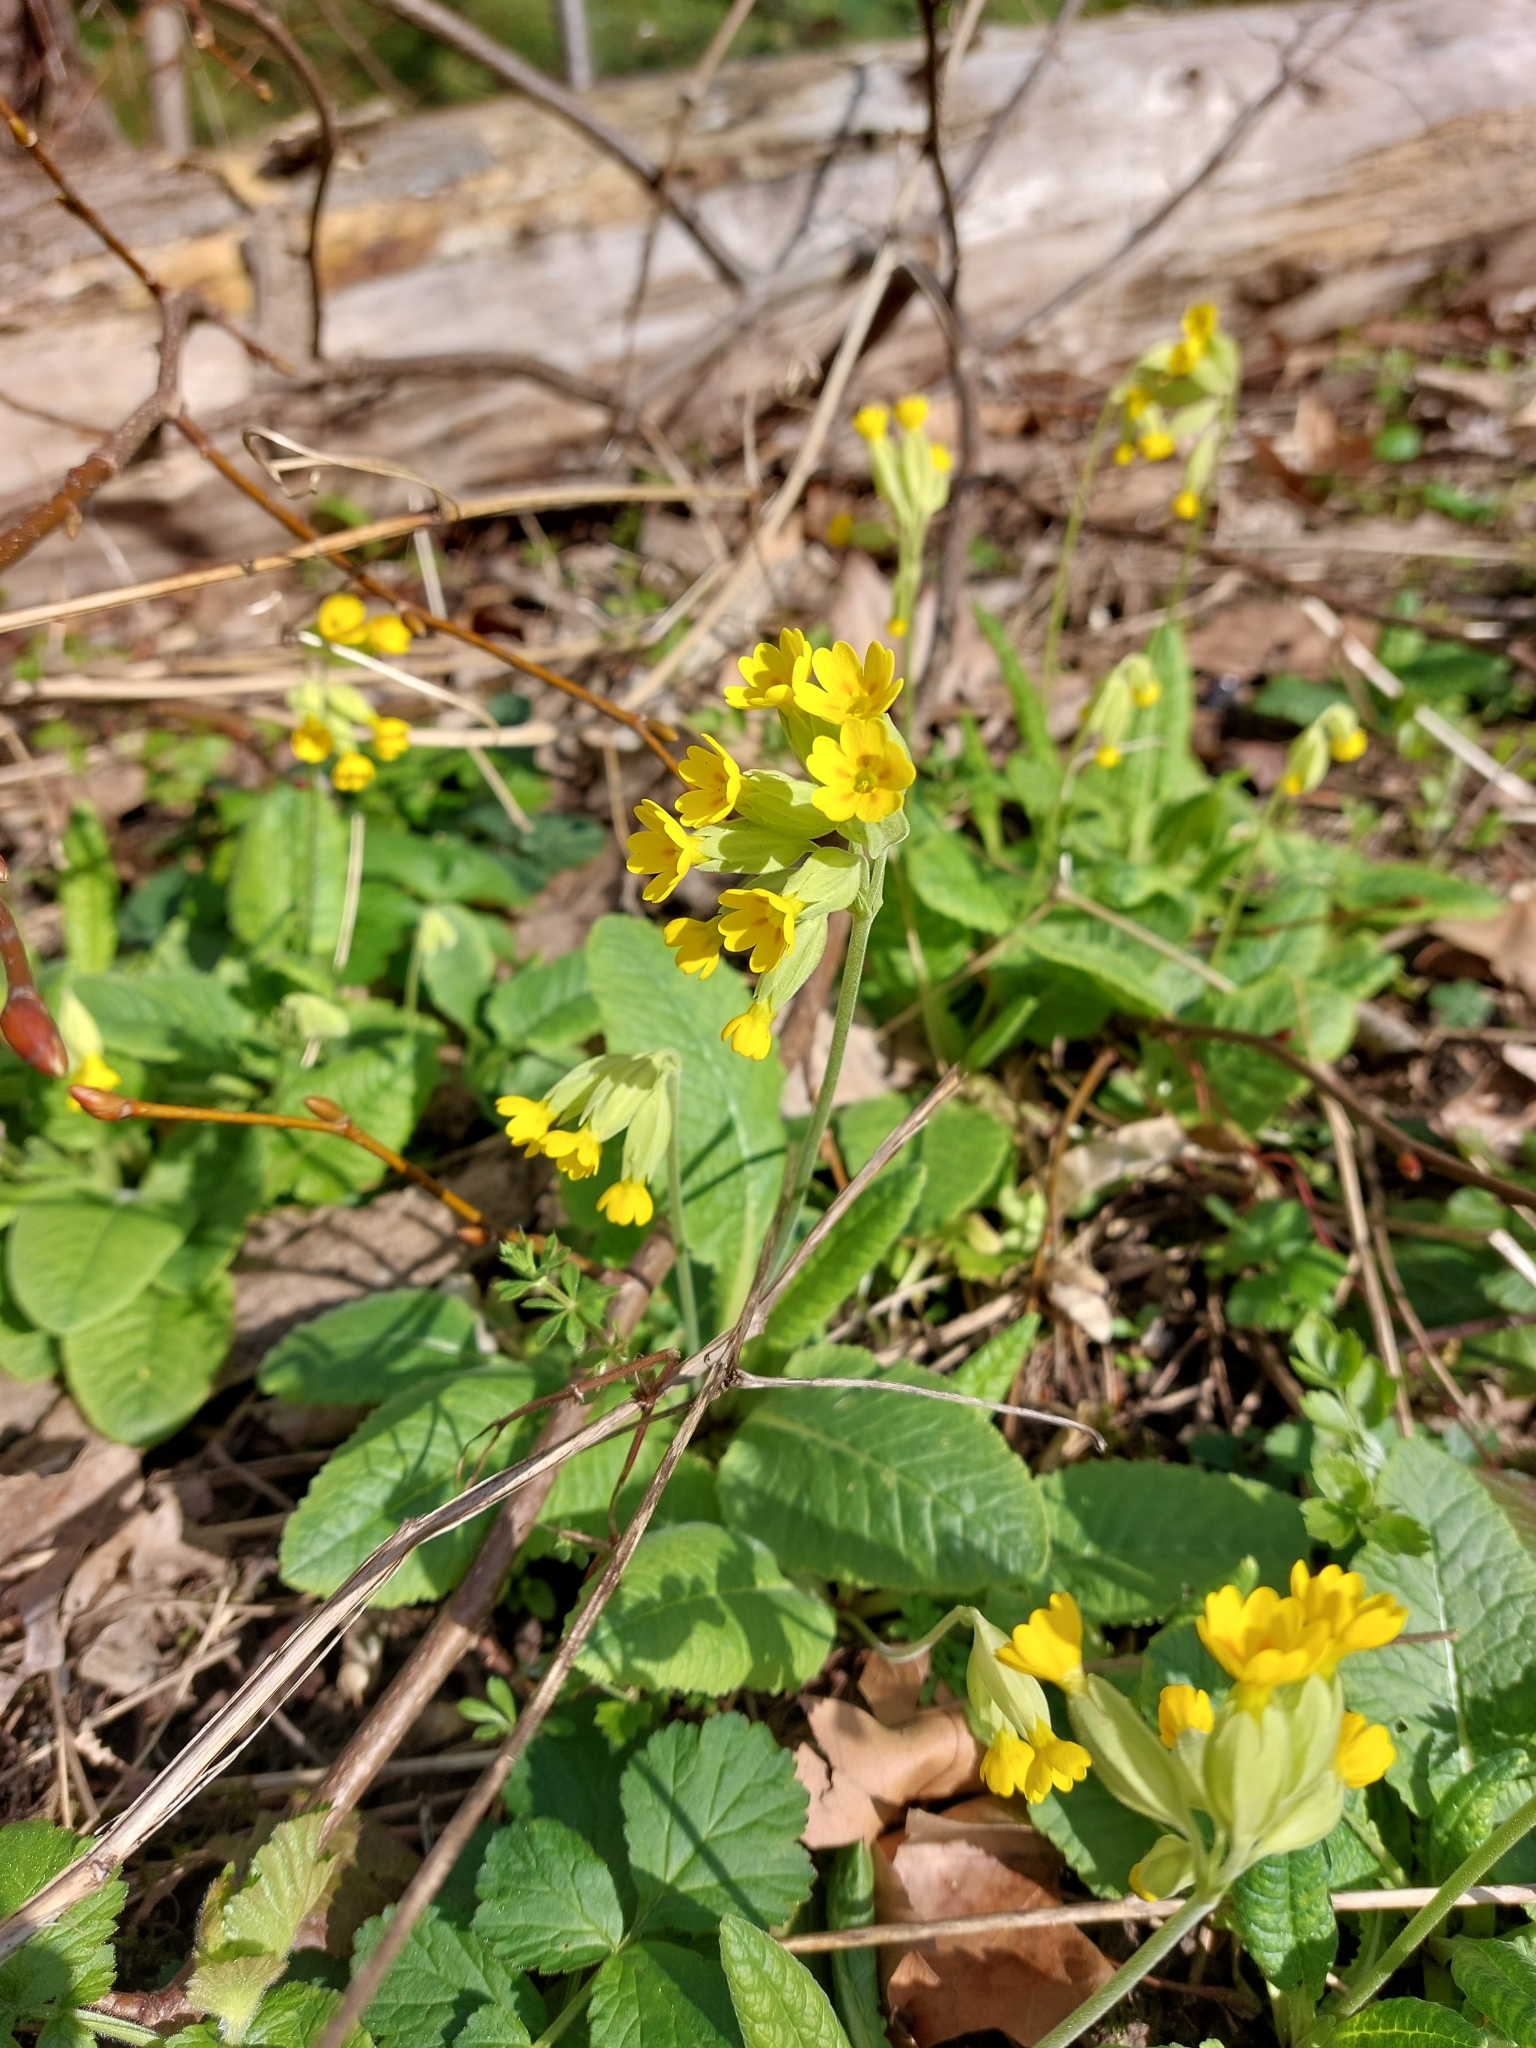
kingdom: Plantae
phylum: Tracheophyta
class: Magnoliopsida
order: Ericales
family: Primulaceae
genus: Primula
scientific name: Primula veris
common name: Cowslip
